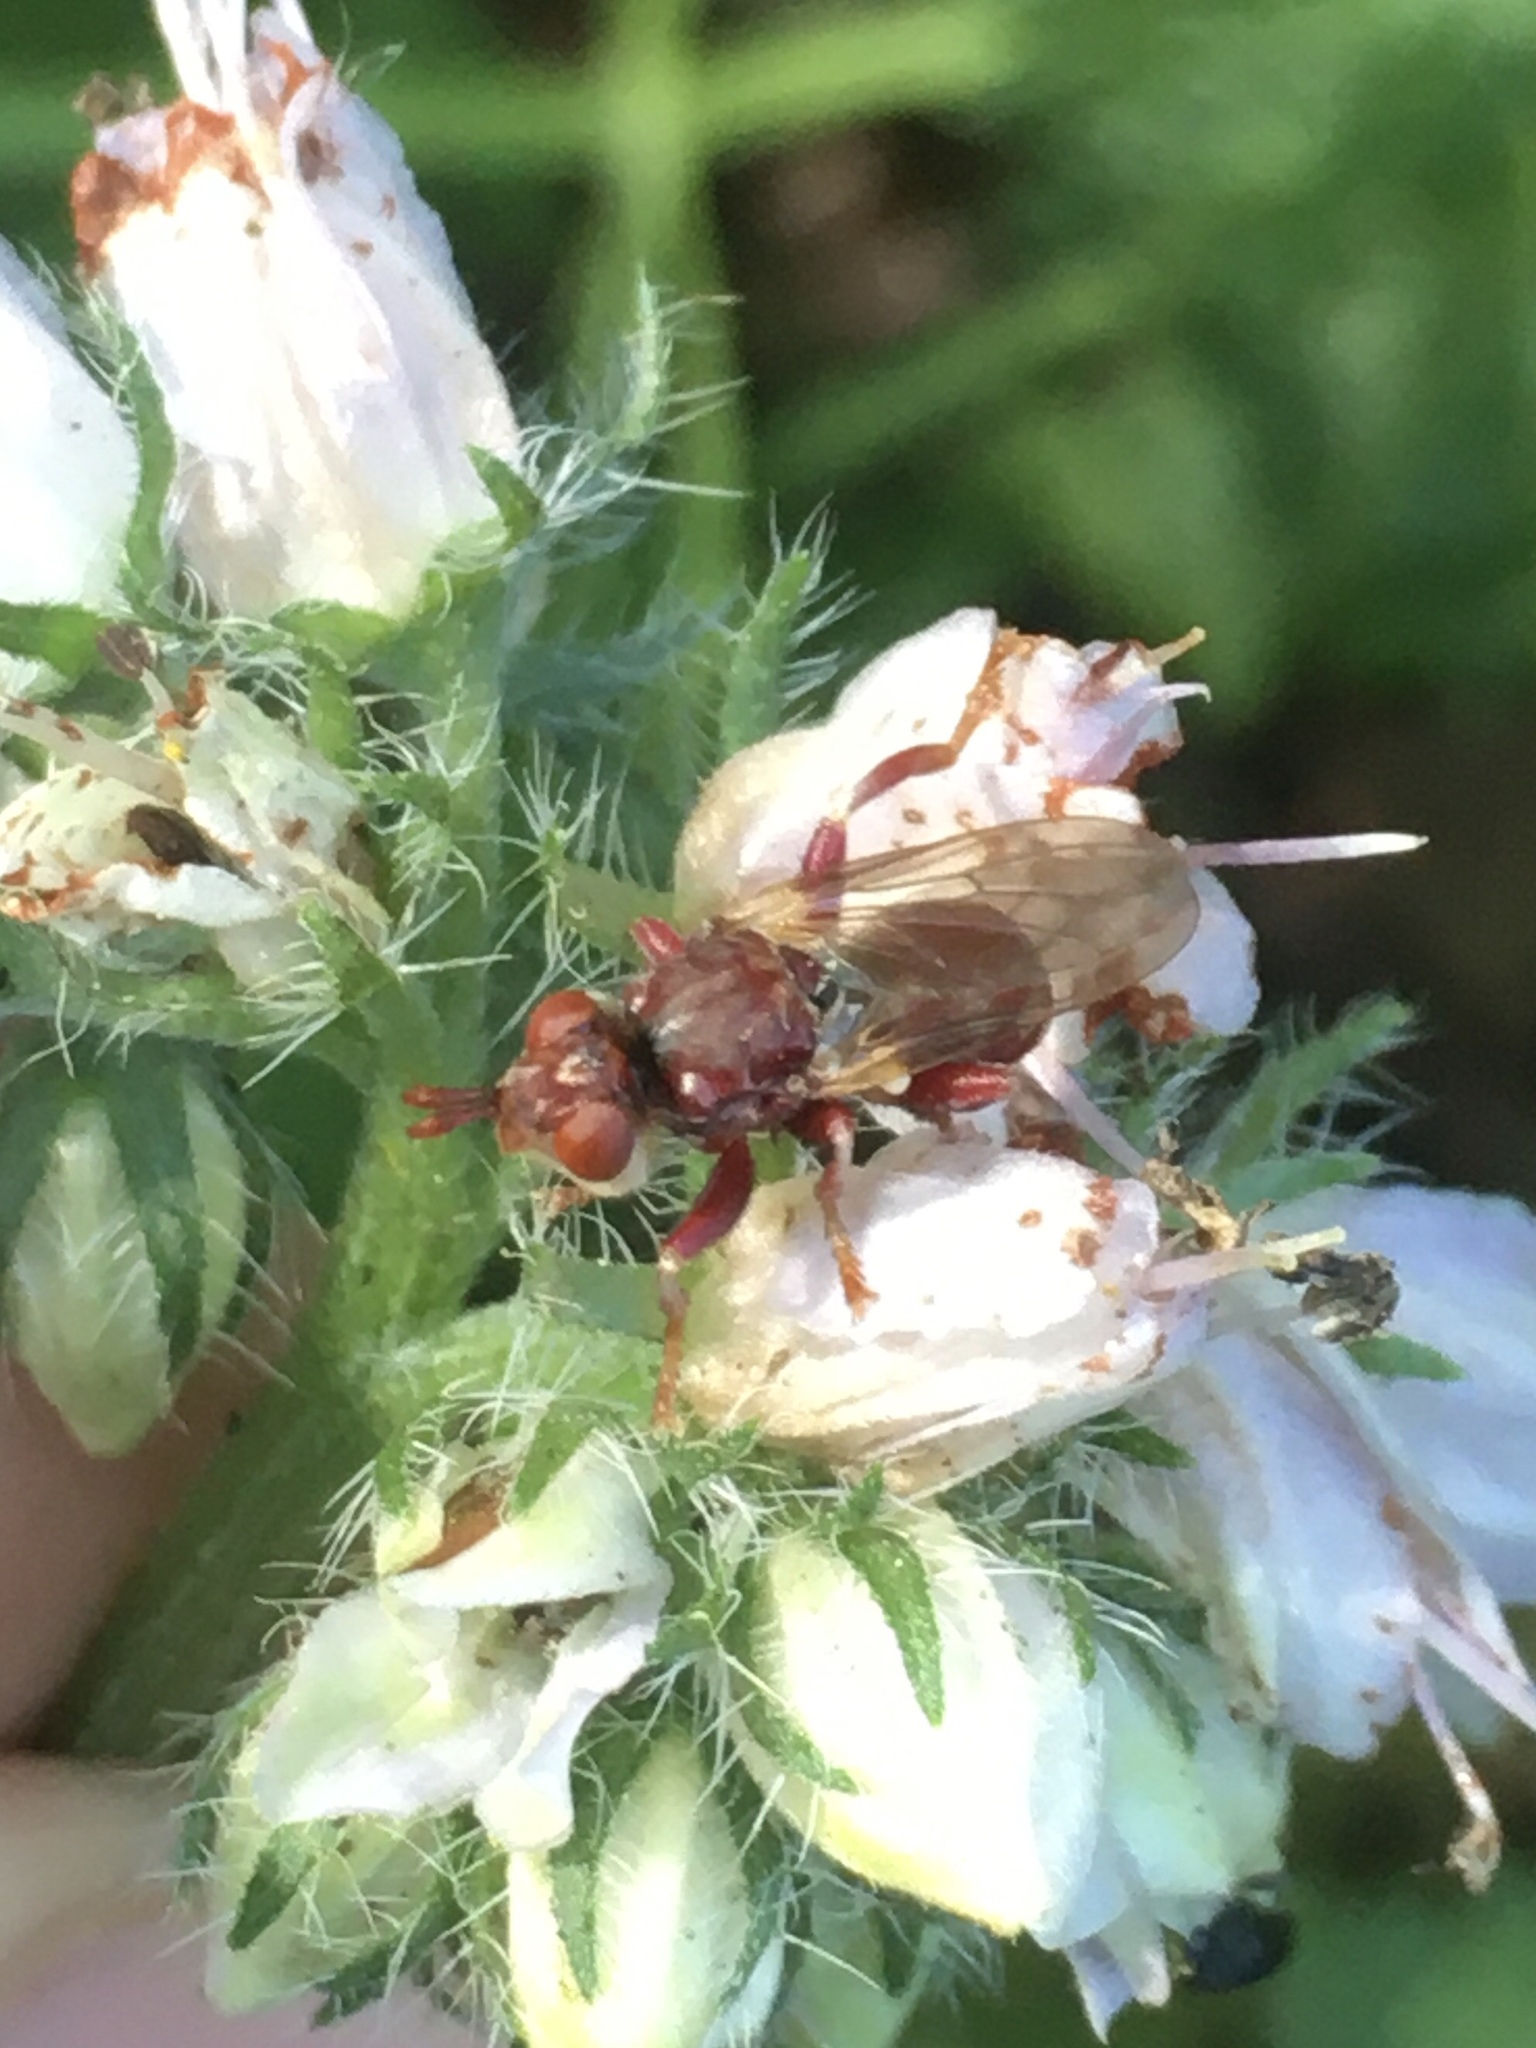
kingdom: Animalia
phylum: Arthropoda
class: Insecta
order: Diptera
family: Conopidae
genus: Myopa
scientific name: Myopa clausa
